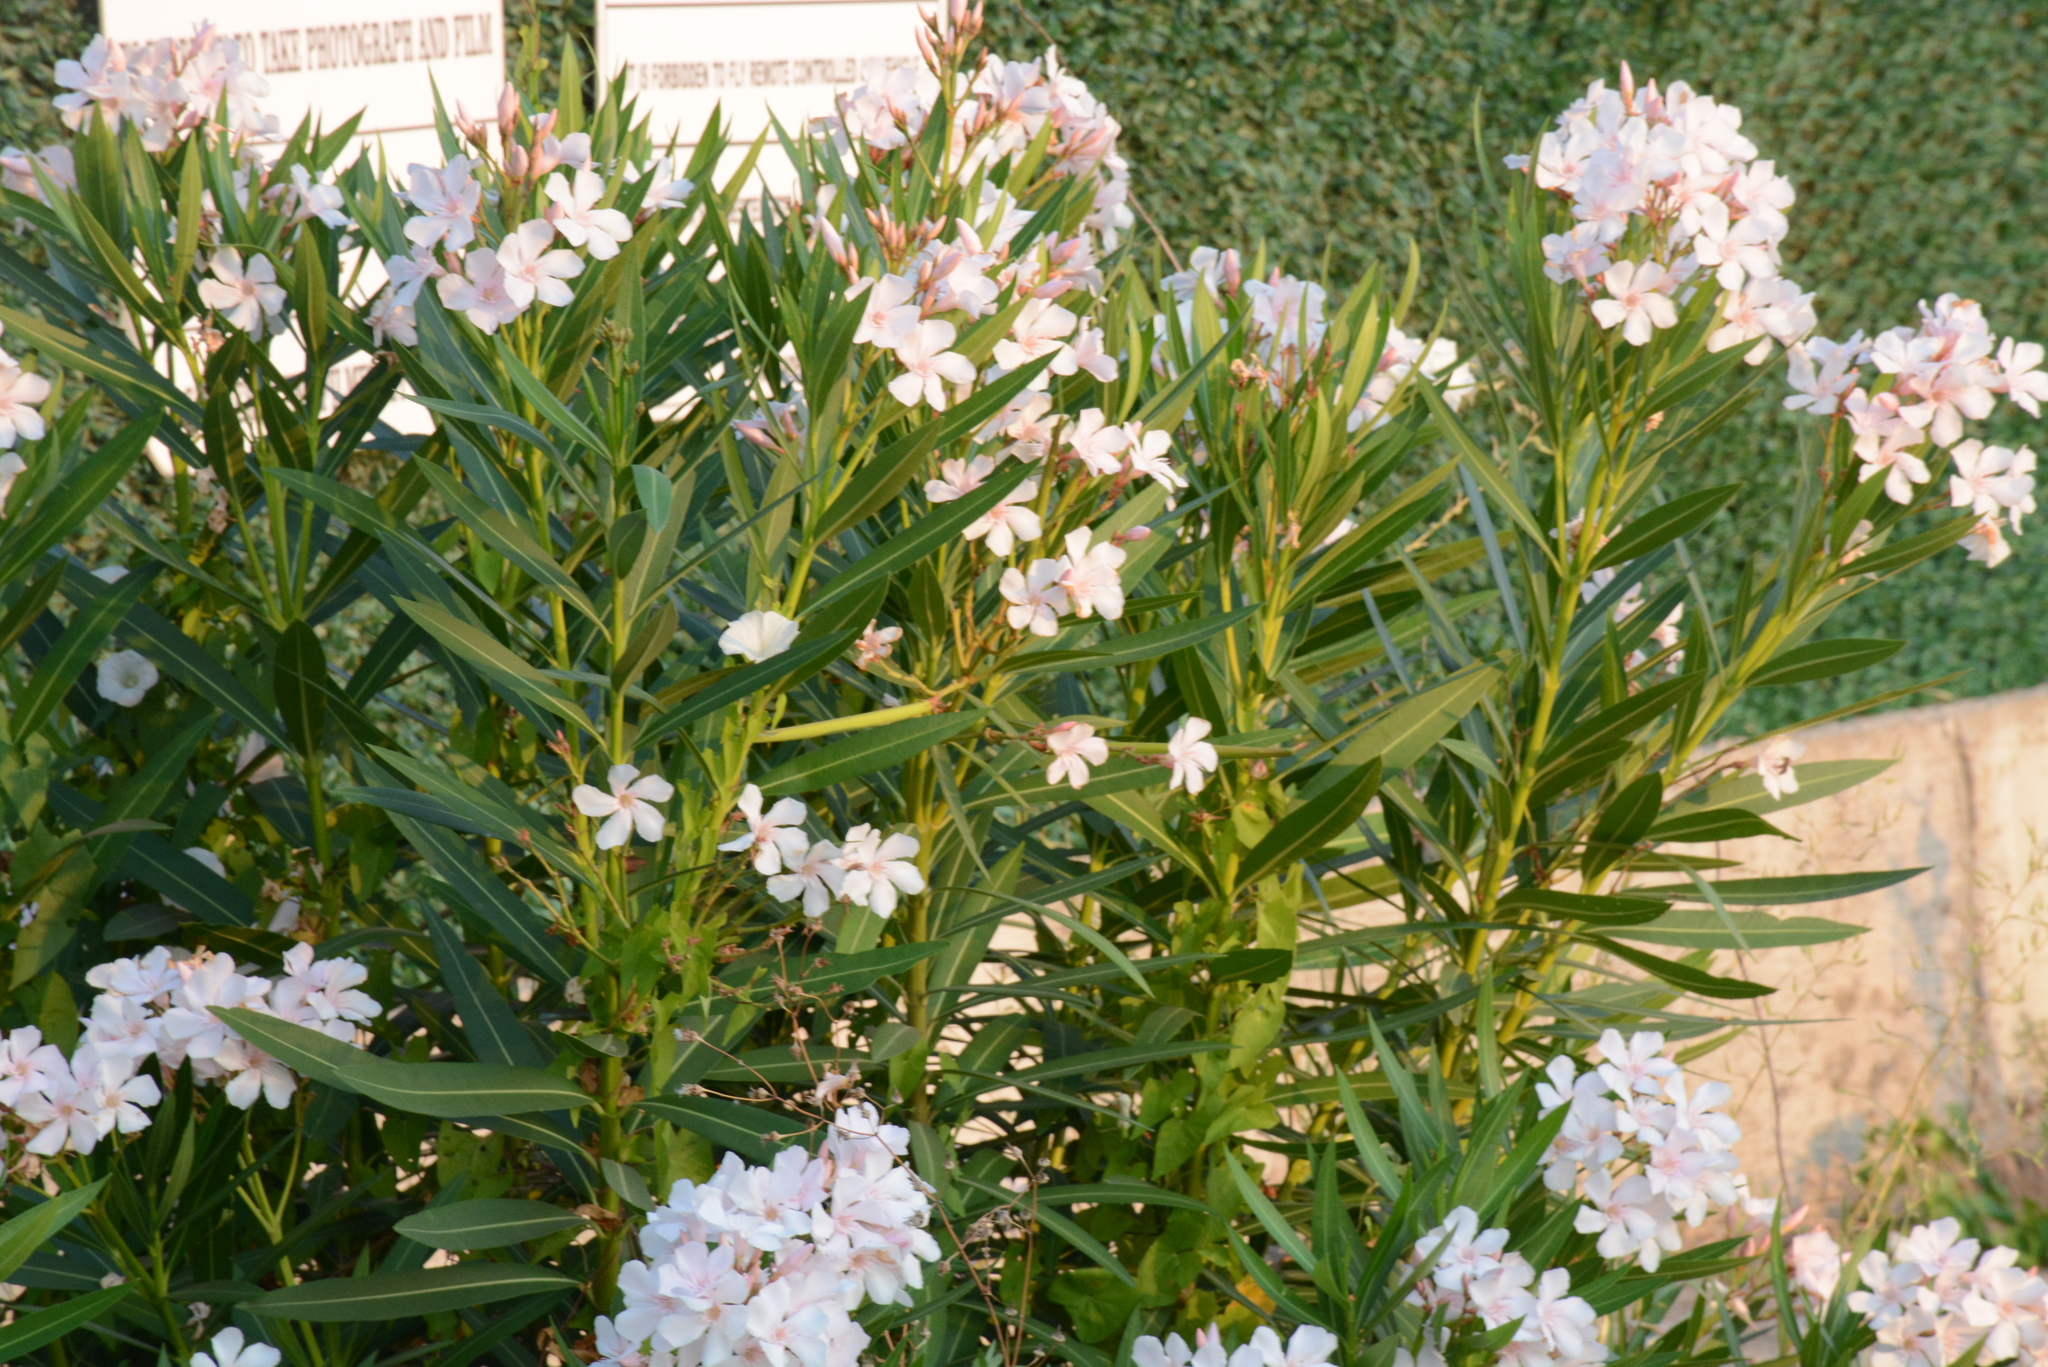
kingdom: Plantae
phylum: Tracheophyta
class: Magnoliopsida
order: Gentianales
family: Apocynaceae
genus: Nerium
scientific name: Nerium oleander
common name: Oleander
